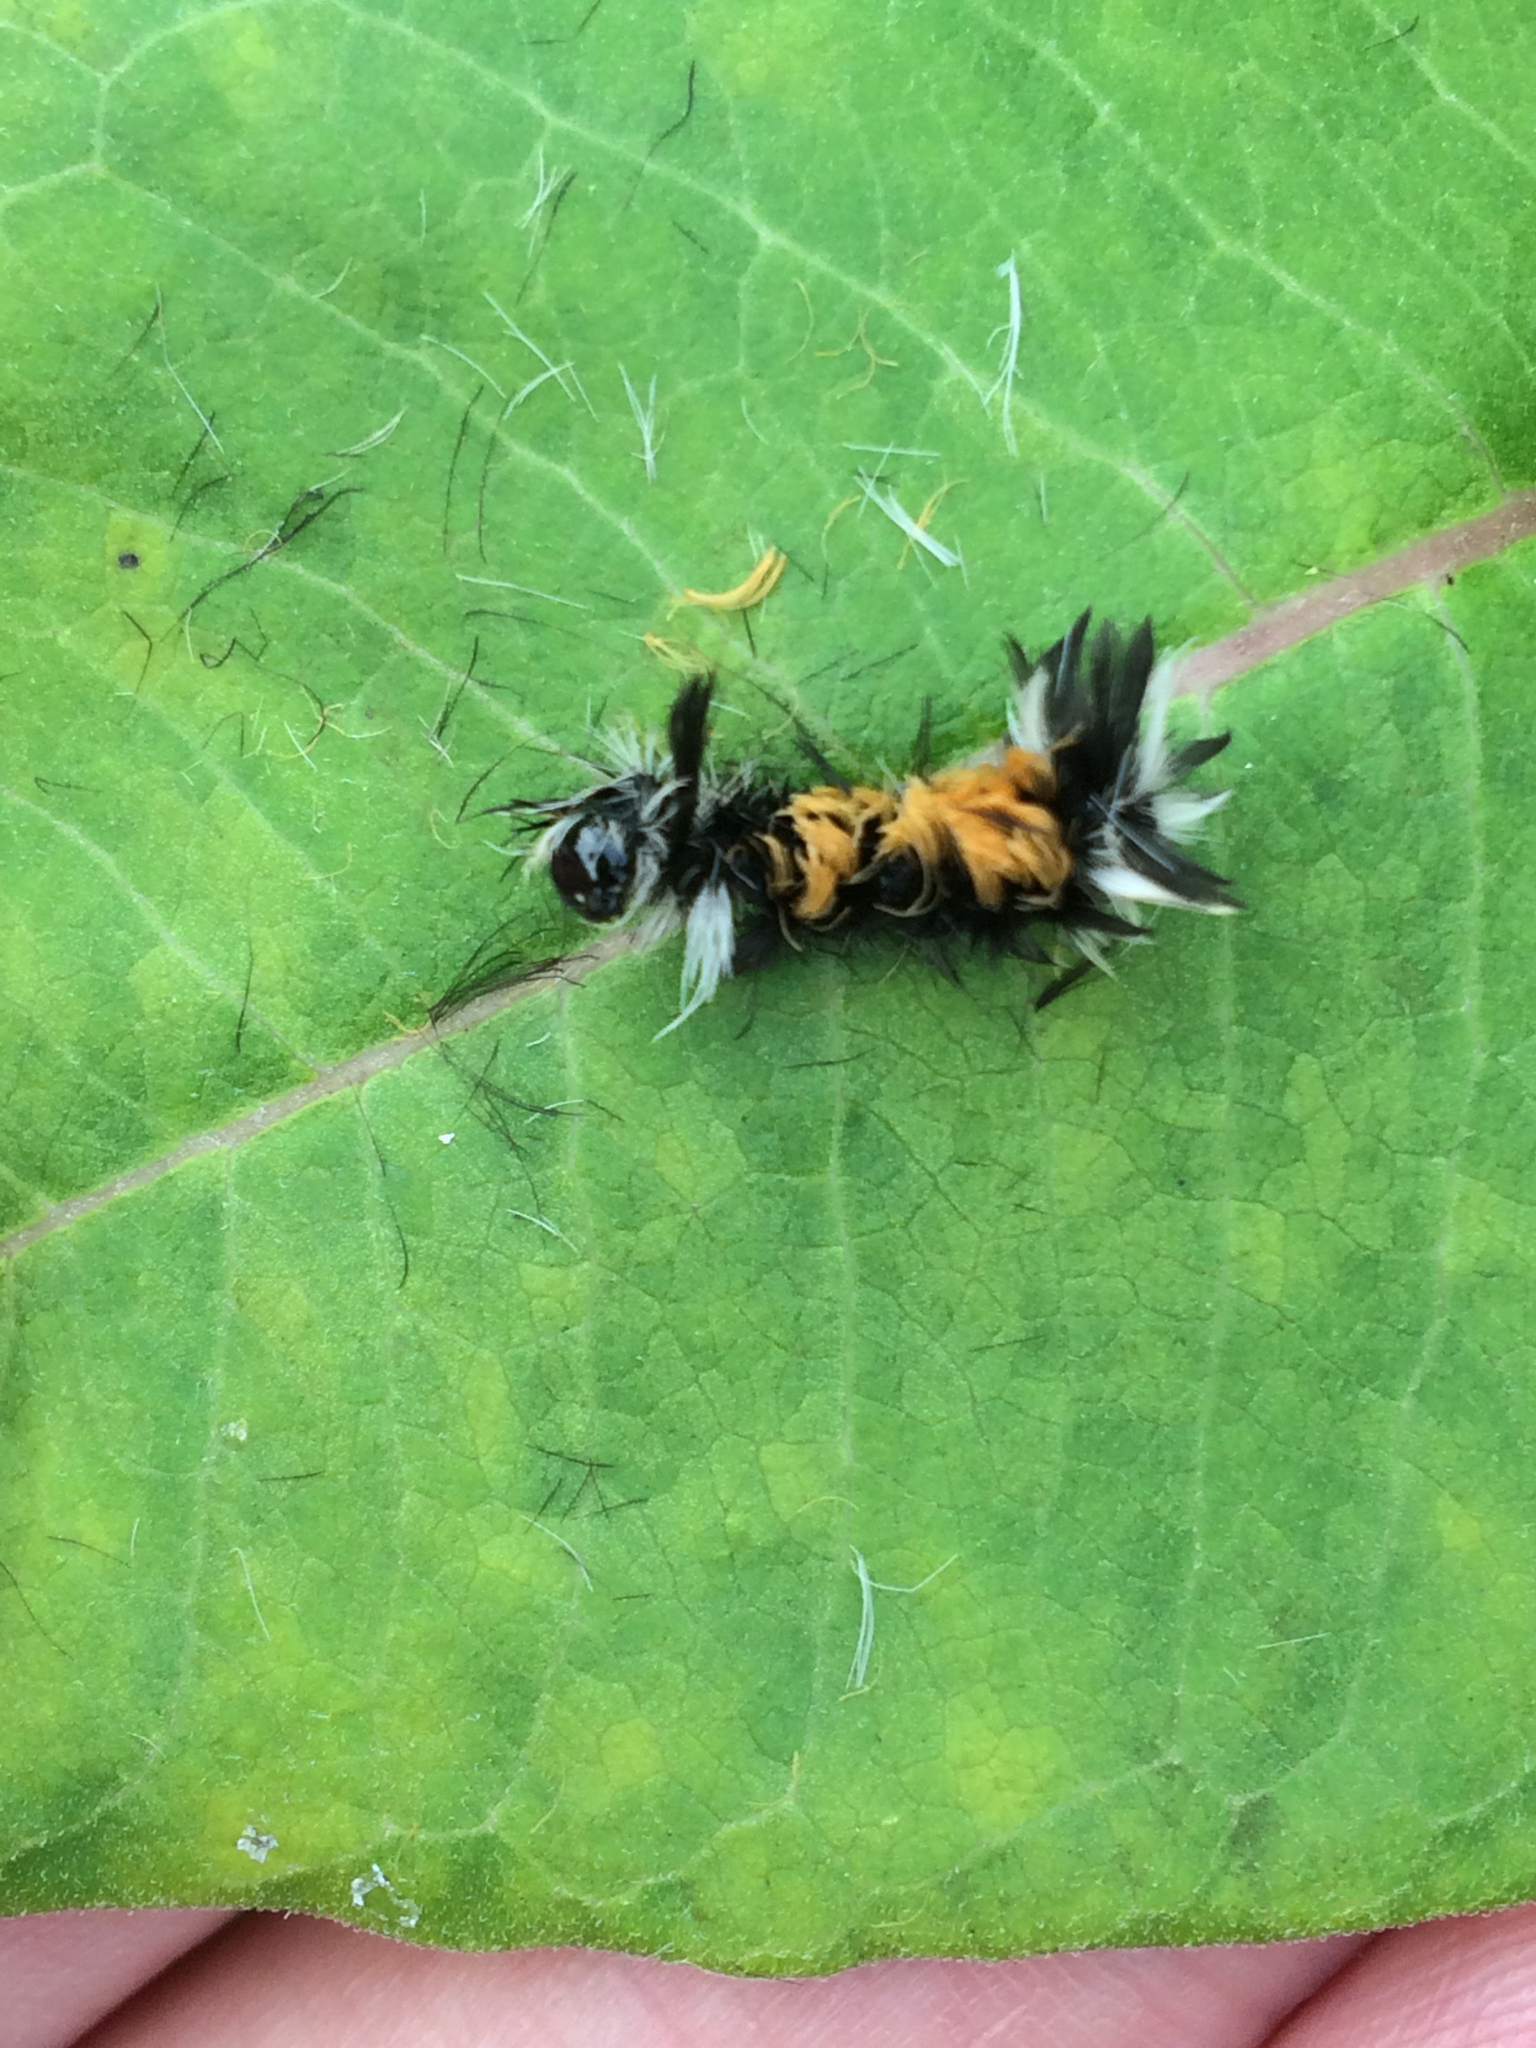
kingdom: Animalia
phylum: Arthropoda
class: Insecta
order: Lepidoptera
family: Erebidae
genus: Euchaetes
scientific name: Euchaetes egle
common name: Milkweed tussock moth
